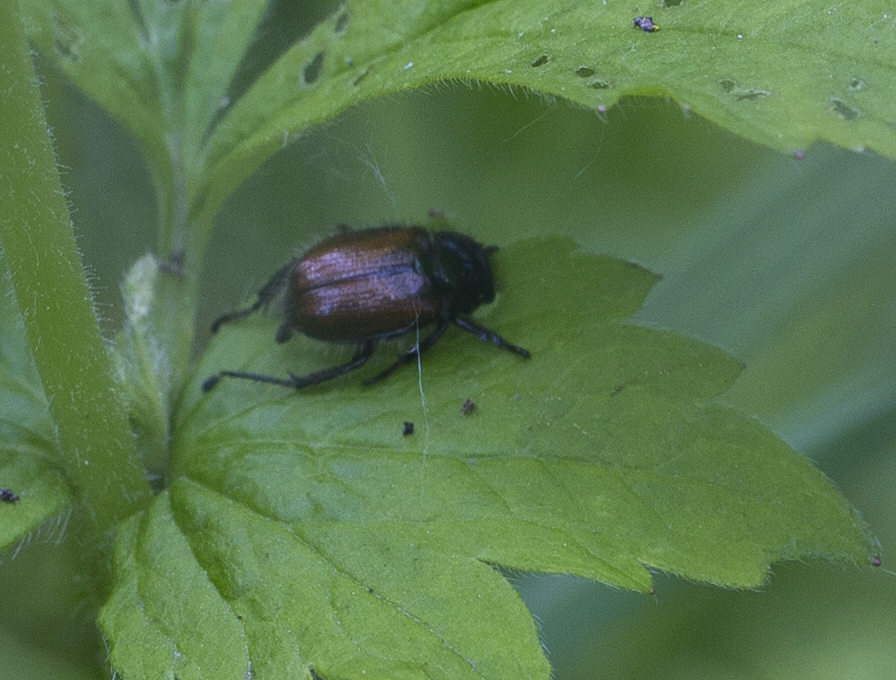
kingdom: Animalia
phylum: Arthropoda
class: Insecta
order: Coleoptera
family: Scarabaeidae
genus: Phyllopertha
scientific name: Phyllopertha horticola
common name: Garden chafer
